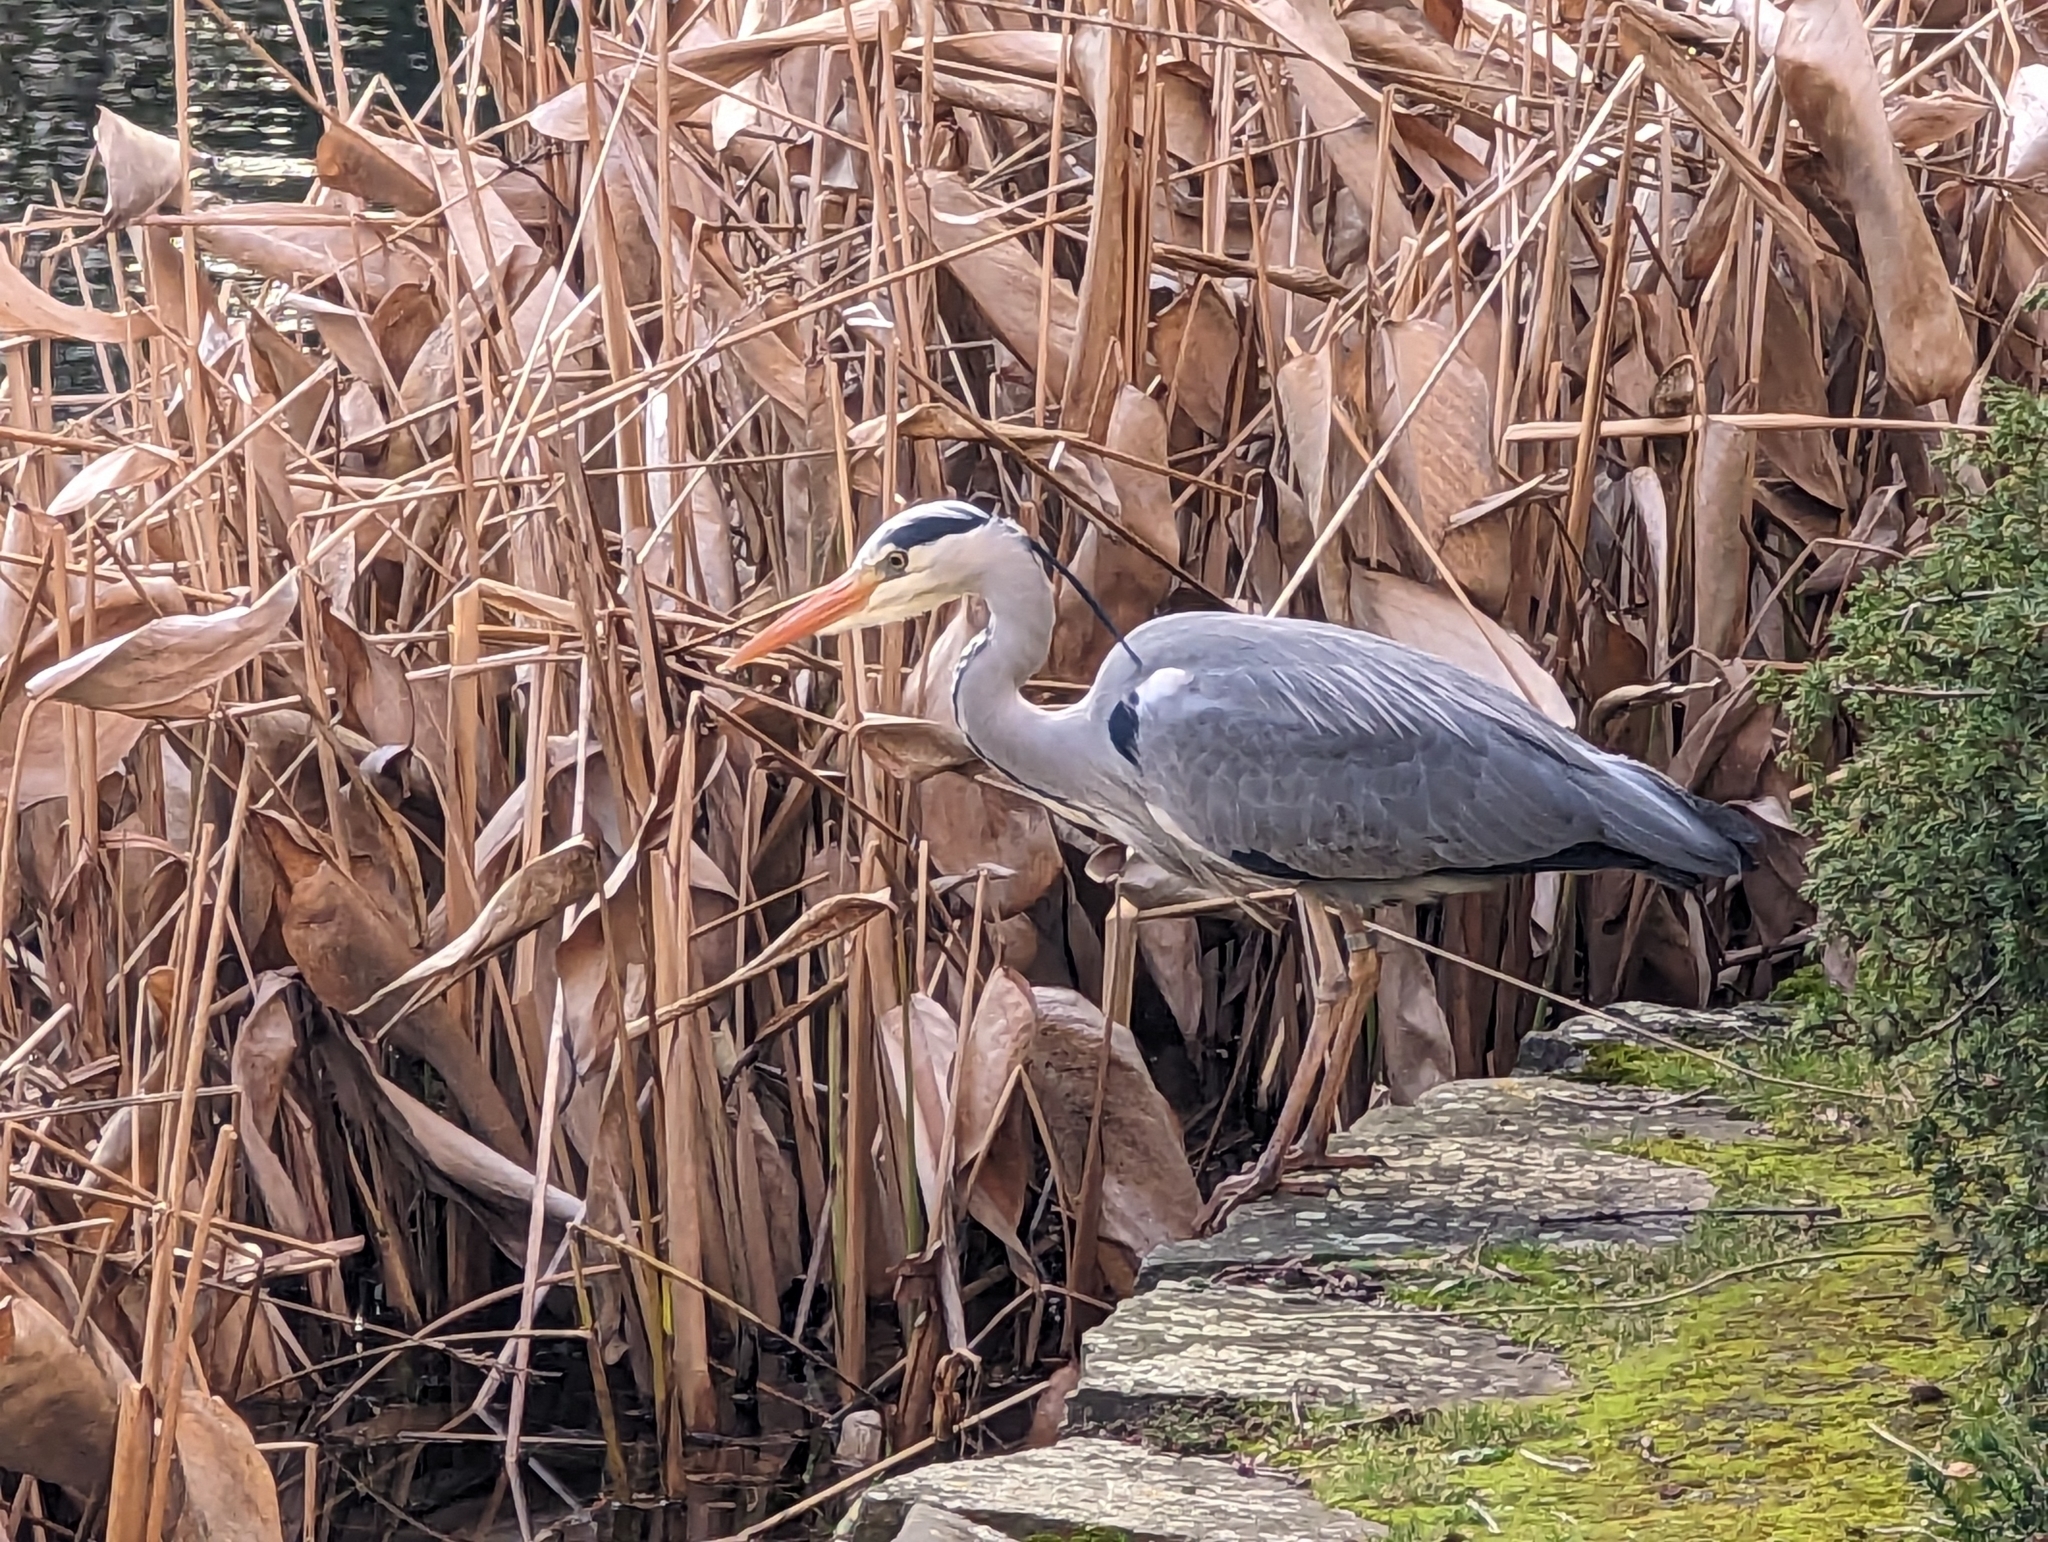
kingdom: Animalia
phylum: Chordata
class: Aves
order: Pelecaniformes
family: Ardeidae
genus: Ardea
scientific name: Ardea cinerea
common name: Grey heron
